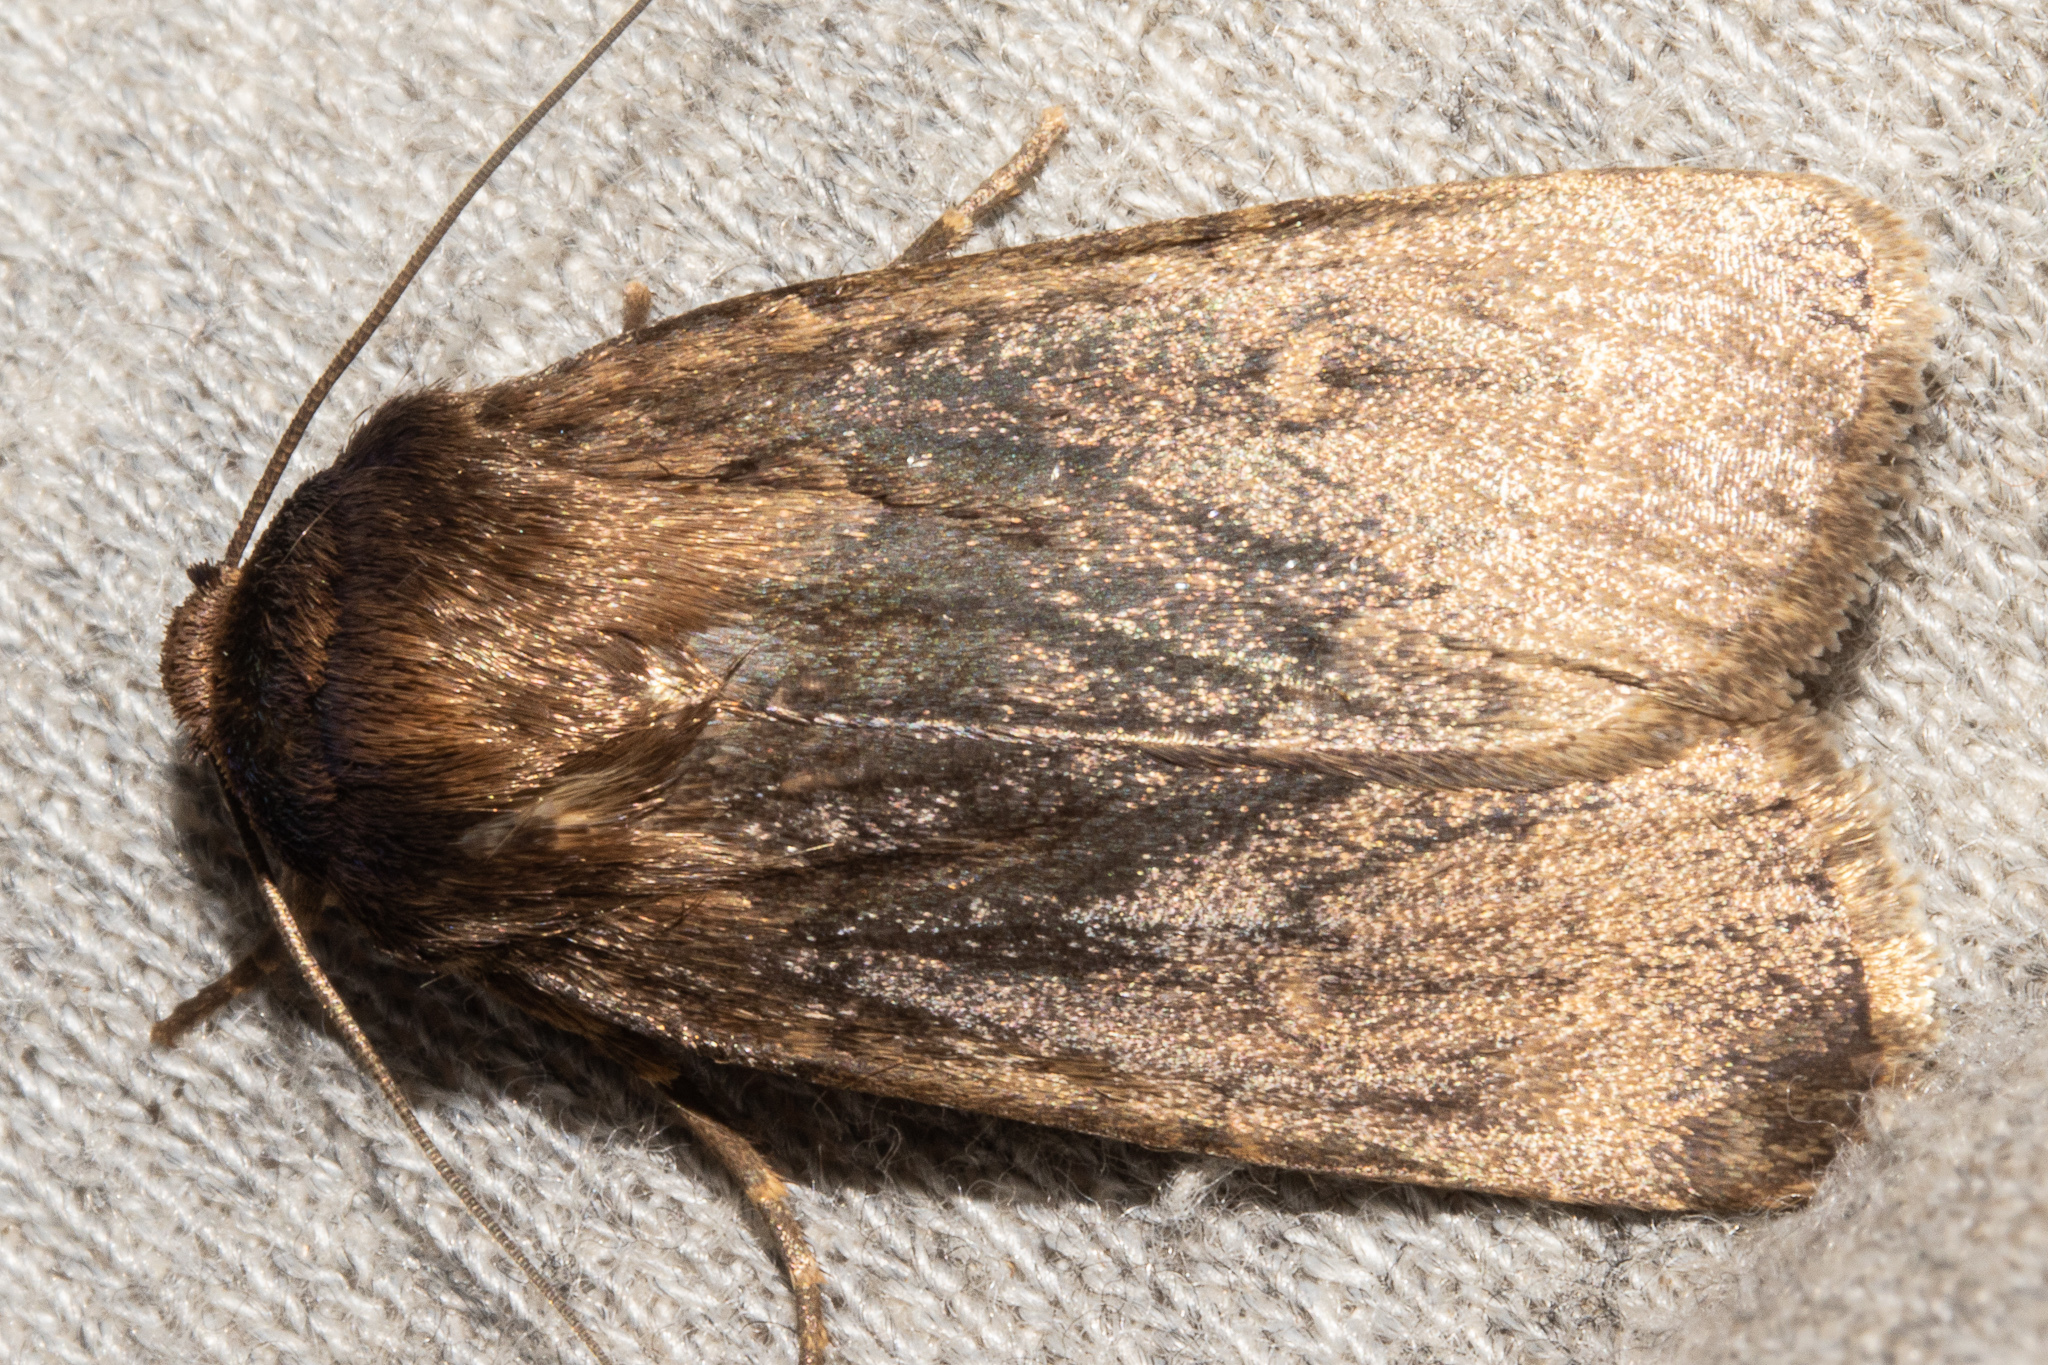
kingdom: Animalia
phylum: Arthropoda
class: Insecta
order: Lepidoptera
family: Noctuidae
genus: Bityla
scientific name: Bityla defigurata
